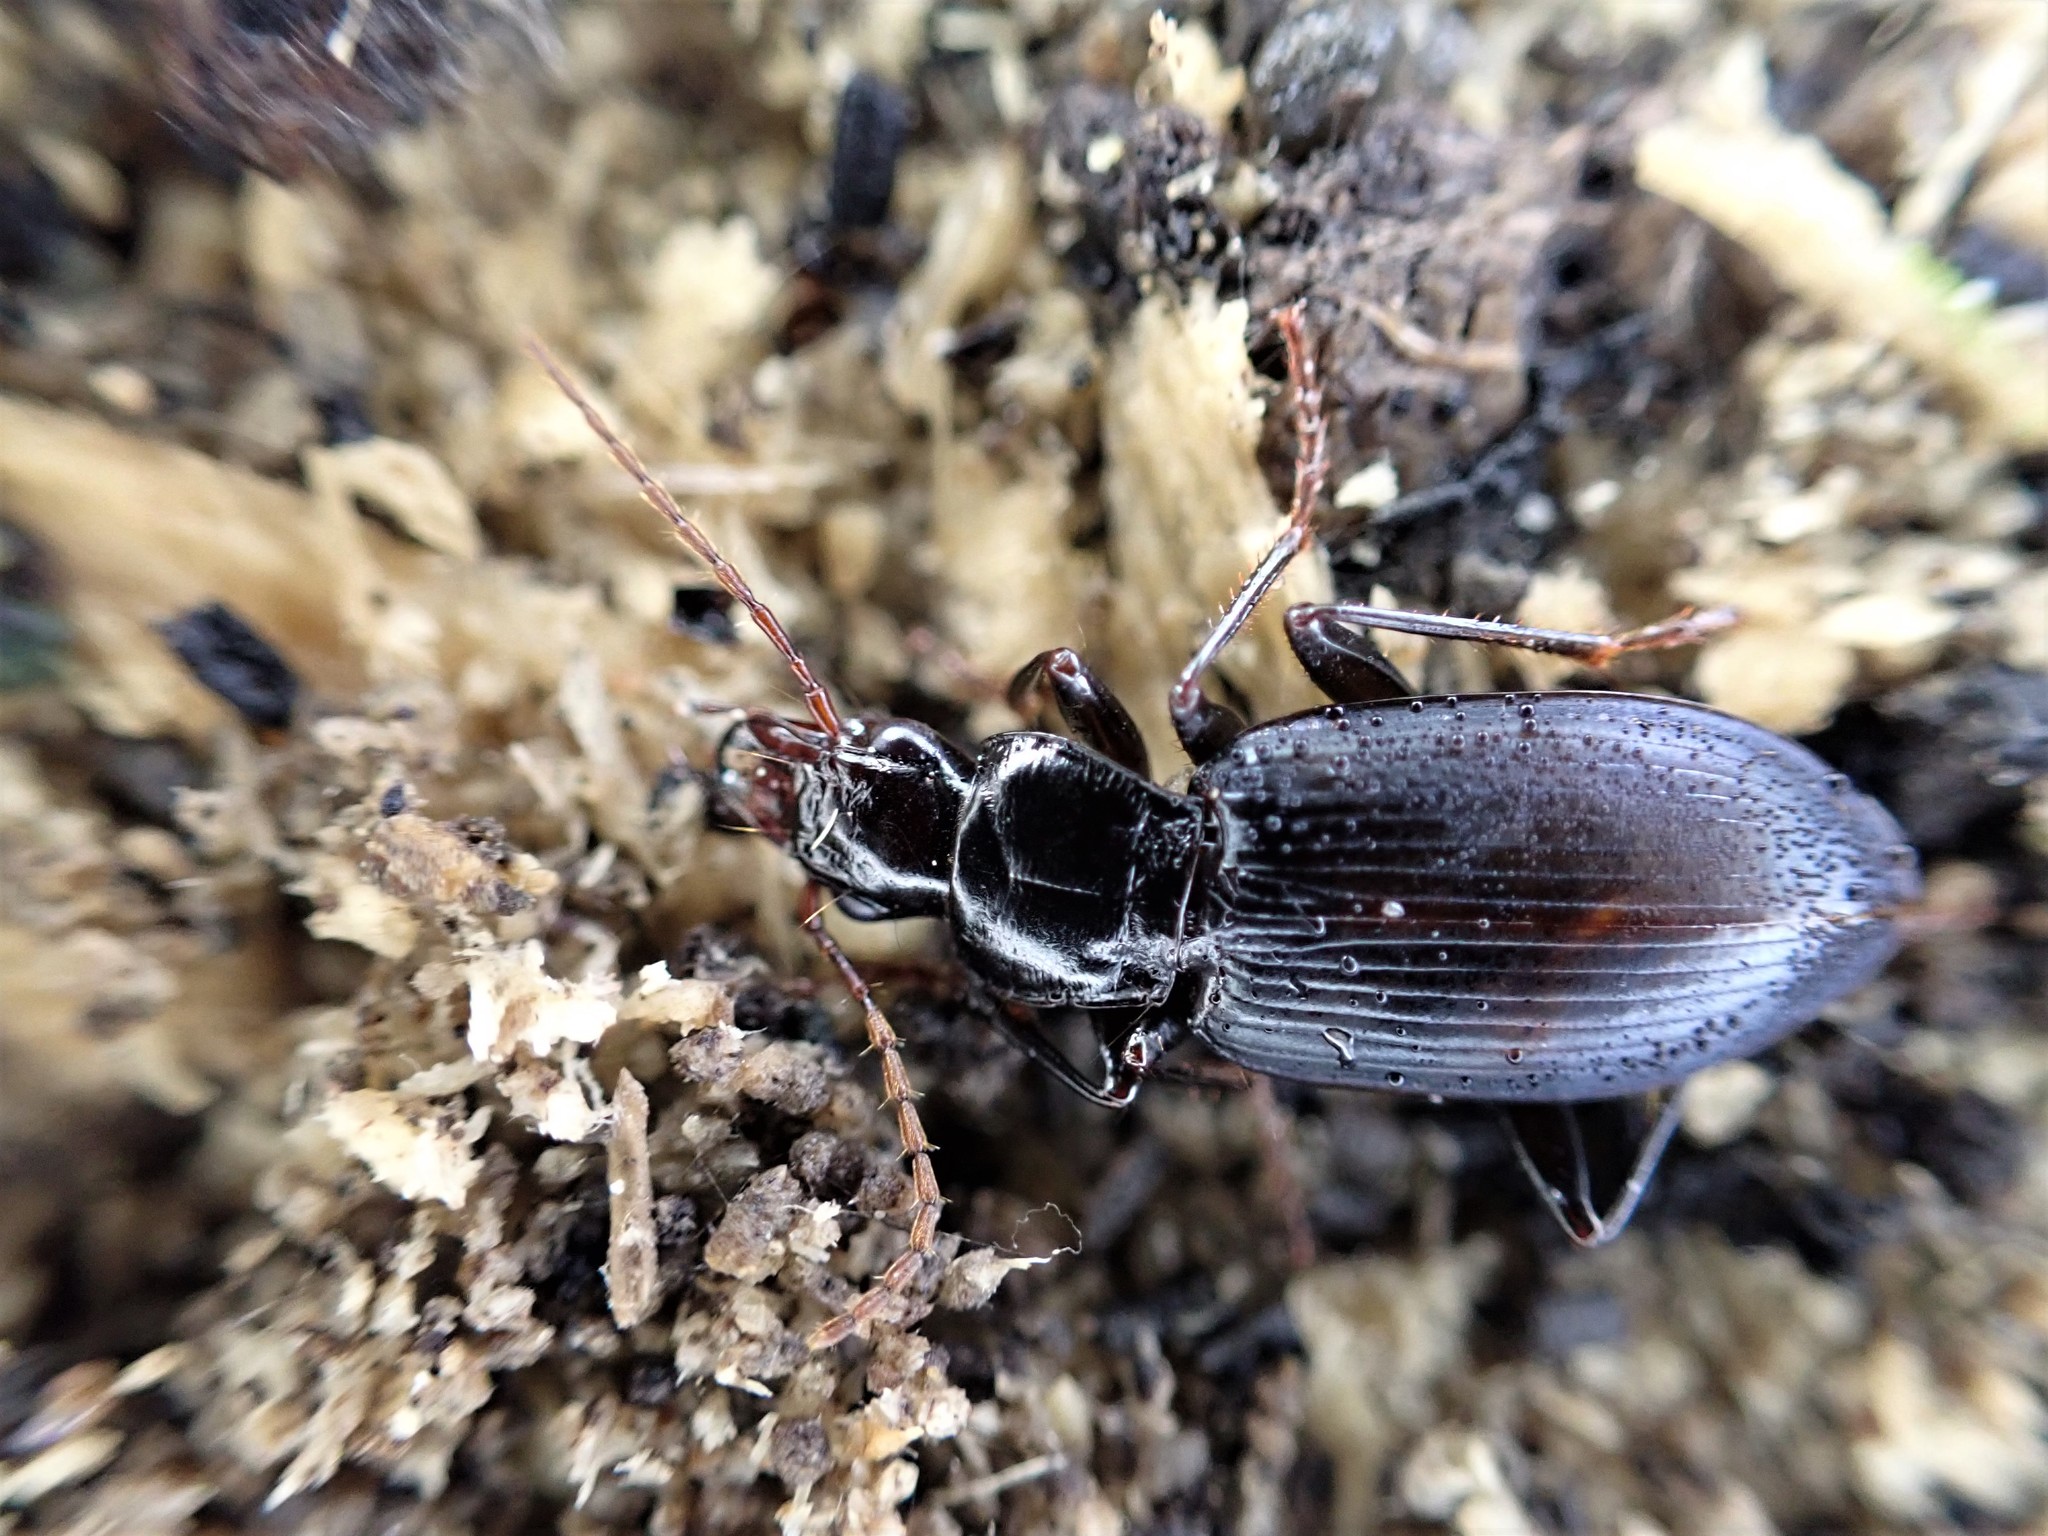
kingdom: Animalia
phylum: Arthropoda
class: Insecta
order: Coleoptera
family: Carabidae
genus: Laemostenus
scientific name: Laemostenus complanatus
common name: Cosmopolitan ground beetle
